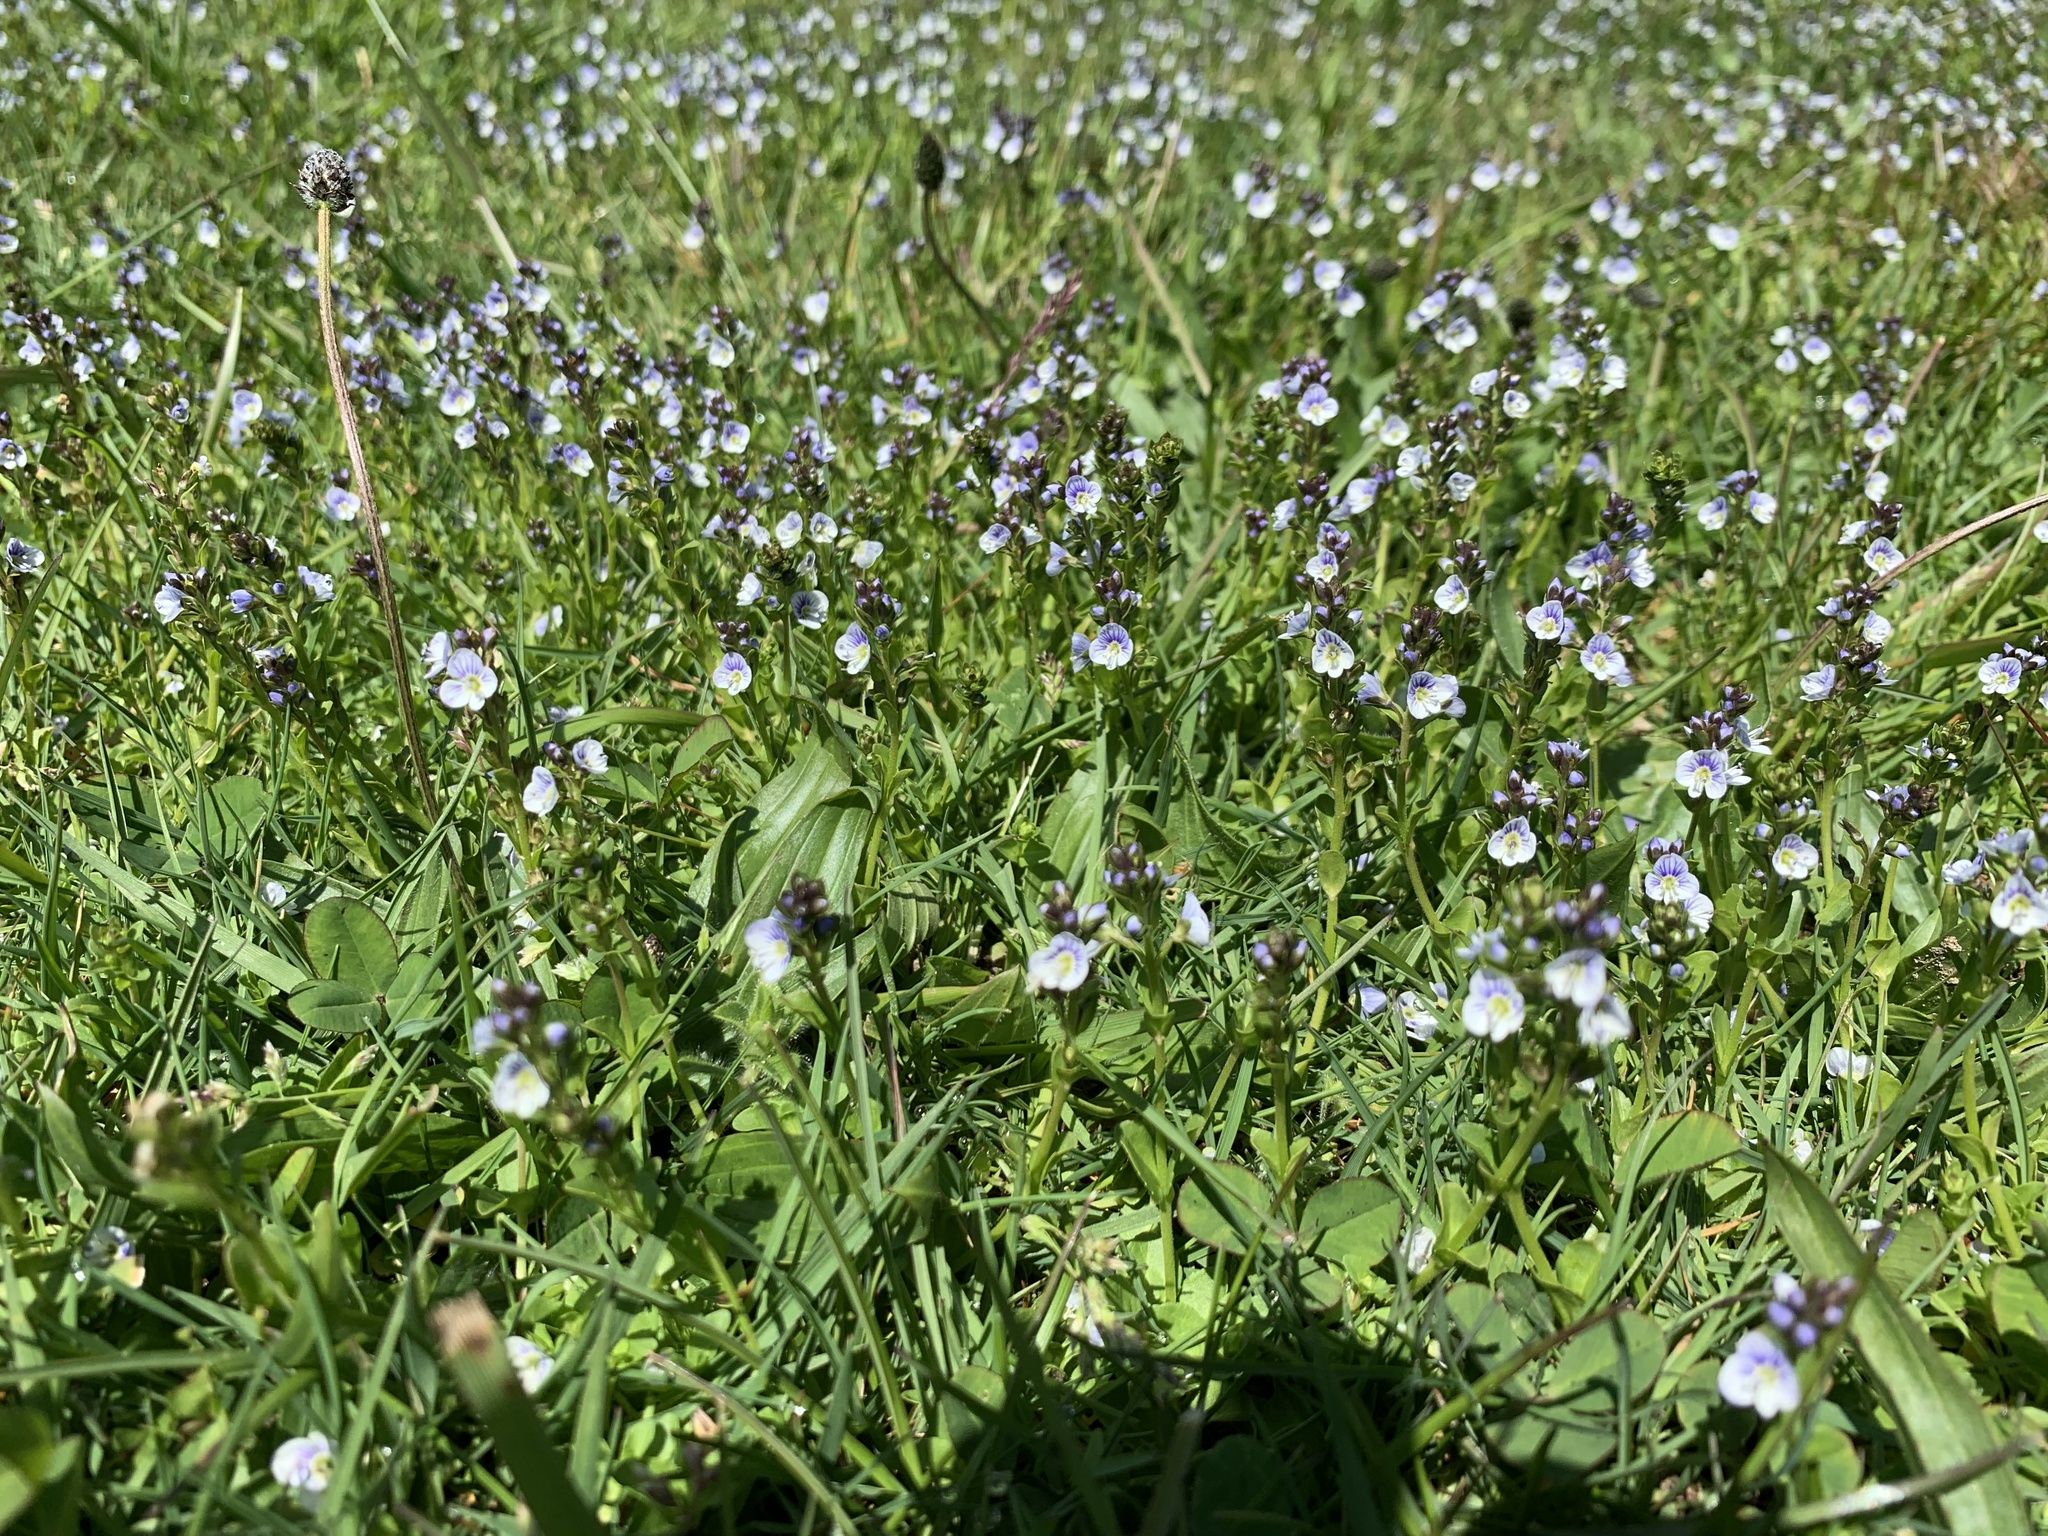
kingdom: Plantae
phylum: Tracheophyta
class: Magnoliopsida
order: Lamiales
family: Plantaginaceae
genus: Veronica
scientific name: Veronica serpyllifolia
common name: Thyme-leaved speedwell
